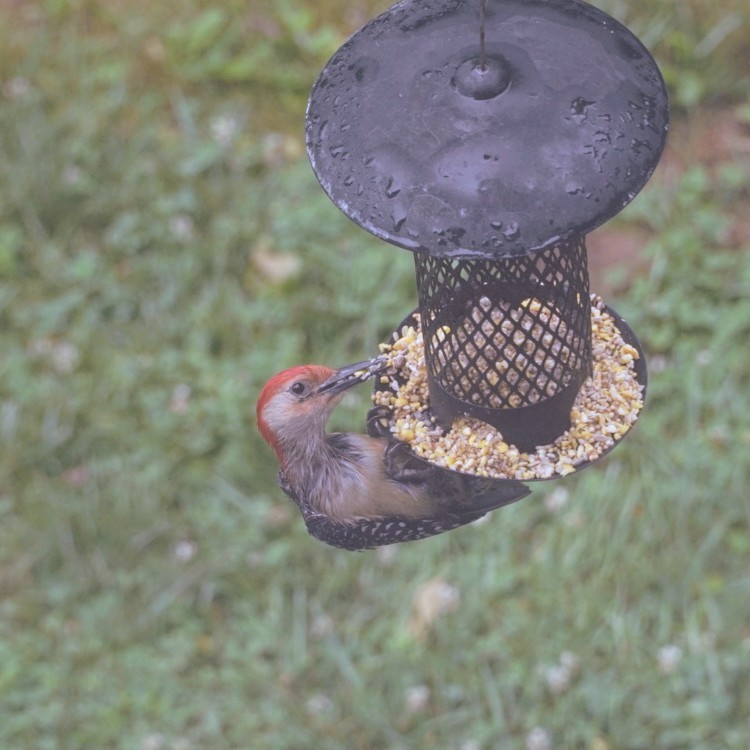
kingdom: Animalia
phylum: Chordata
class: Aves
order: Piciformes
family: Picidae
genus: Melanerpes
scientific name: Melanerpes carolinus
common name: Red-bellied woodpecker
